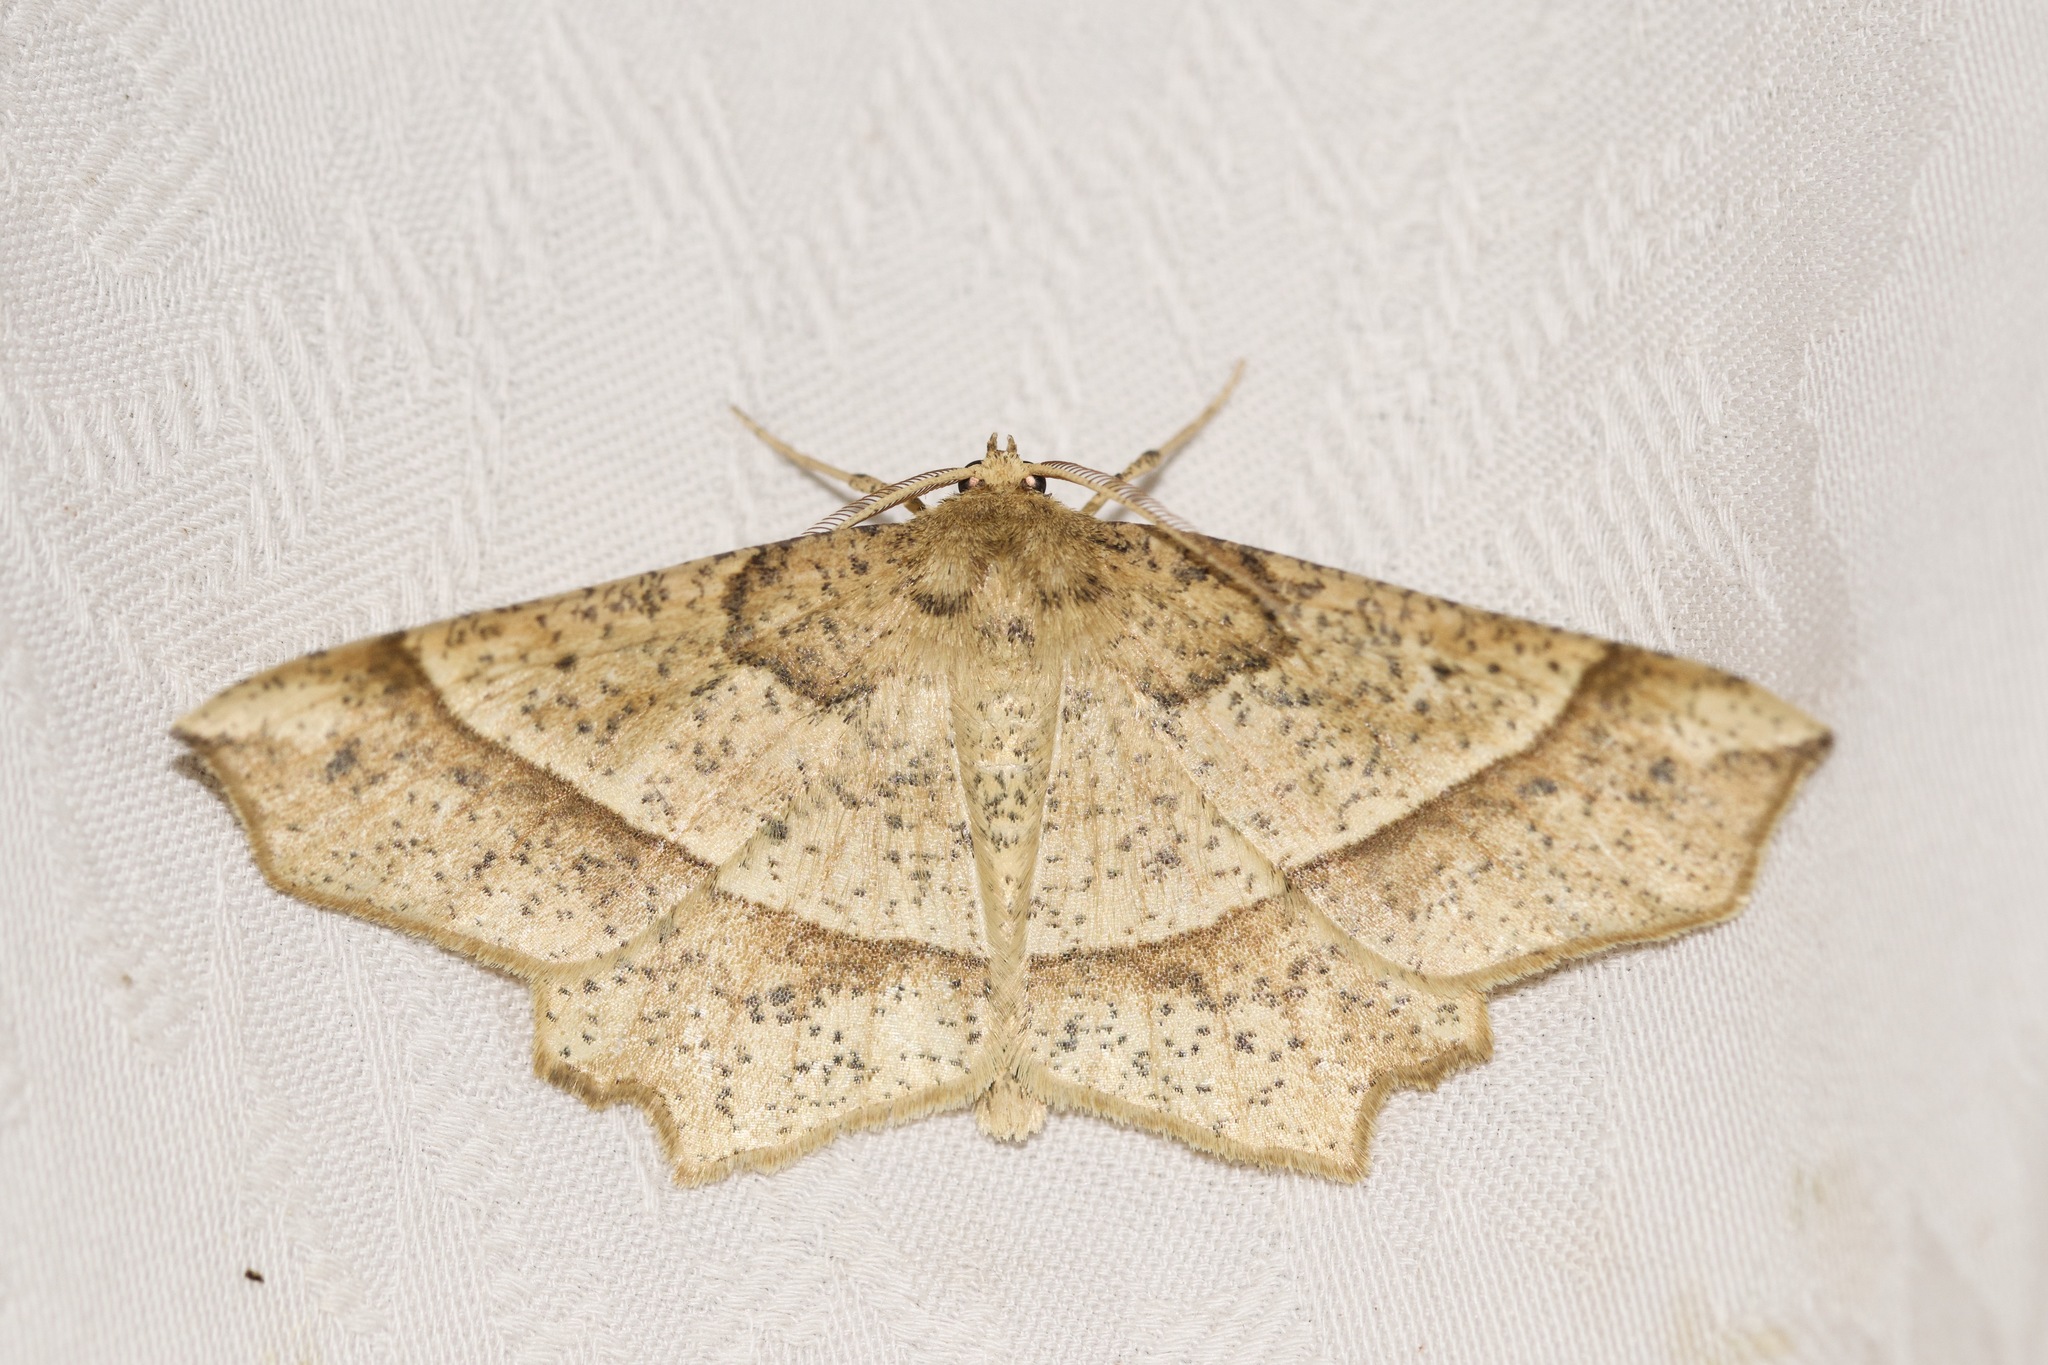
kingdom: Animalia
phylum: Arthropoda
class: Insecta
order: Lepidoptera
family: Geometridae
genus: Euchlaena
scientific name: Euchlaena tigrinaria
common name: Mottled euchlaena moth
